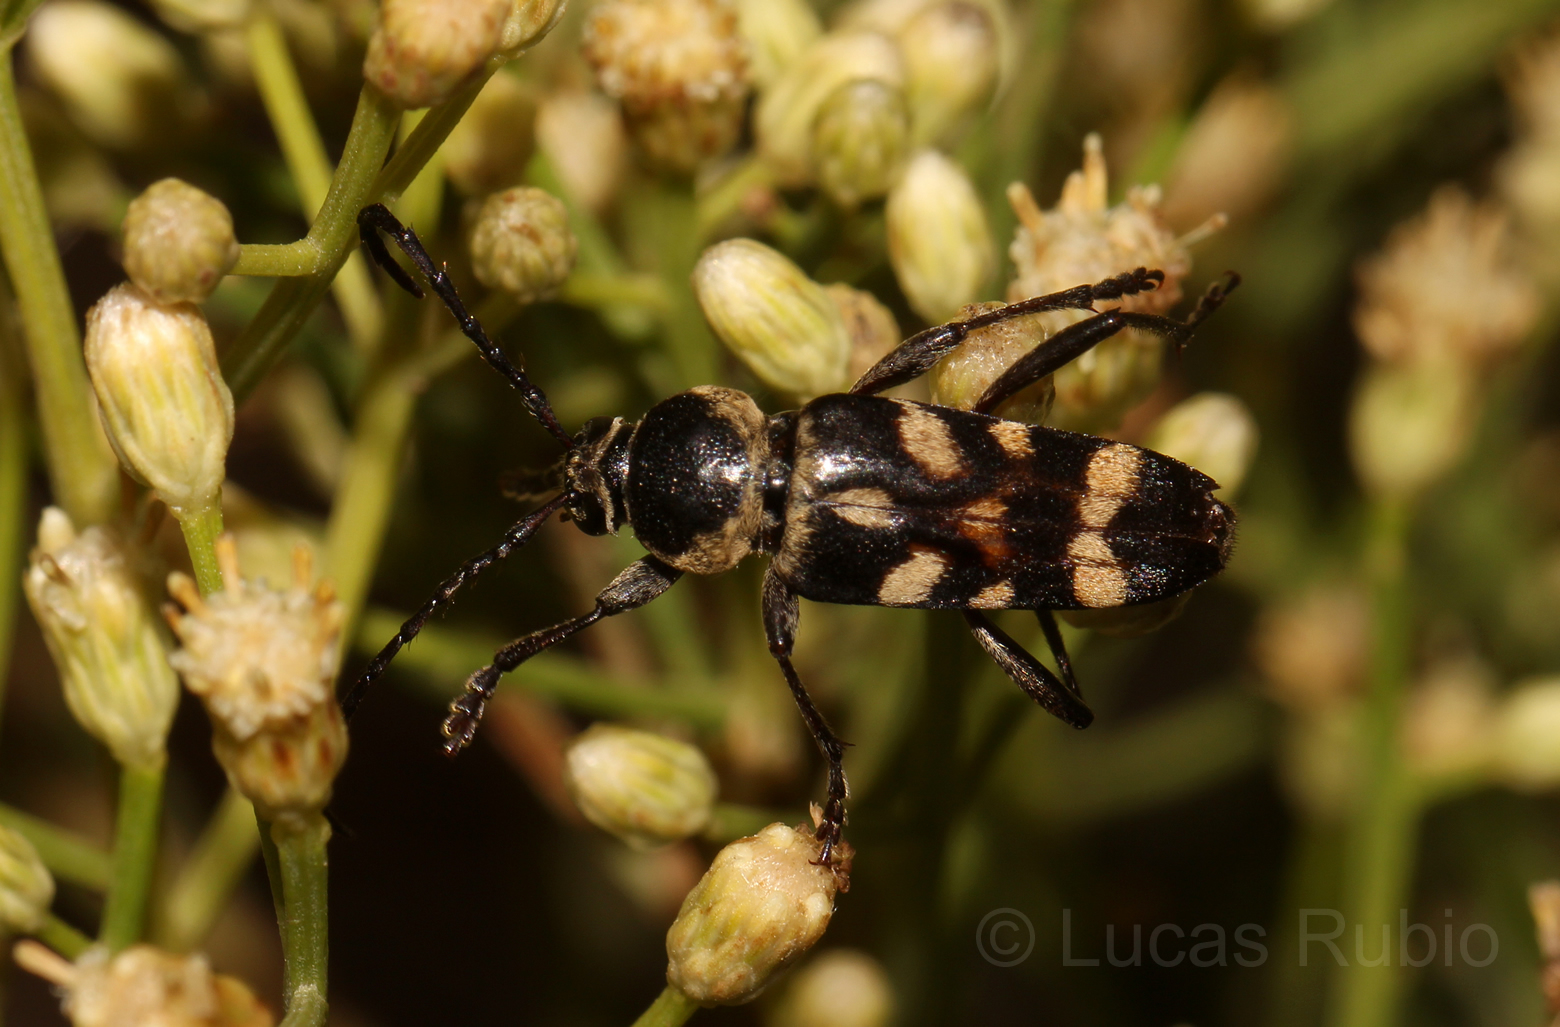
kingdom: Animalia
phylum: Arthropoda
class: Insecta
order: Coleoptera
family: Cerambycidae
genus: Megacyllene
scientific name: Megacyllene mellyi
